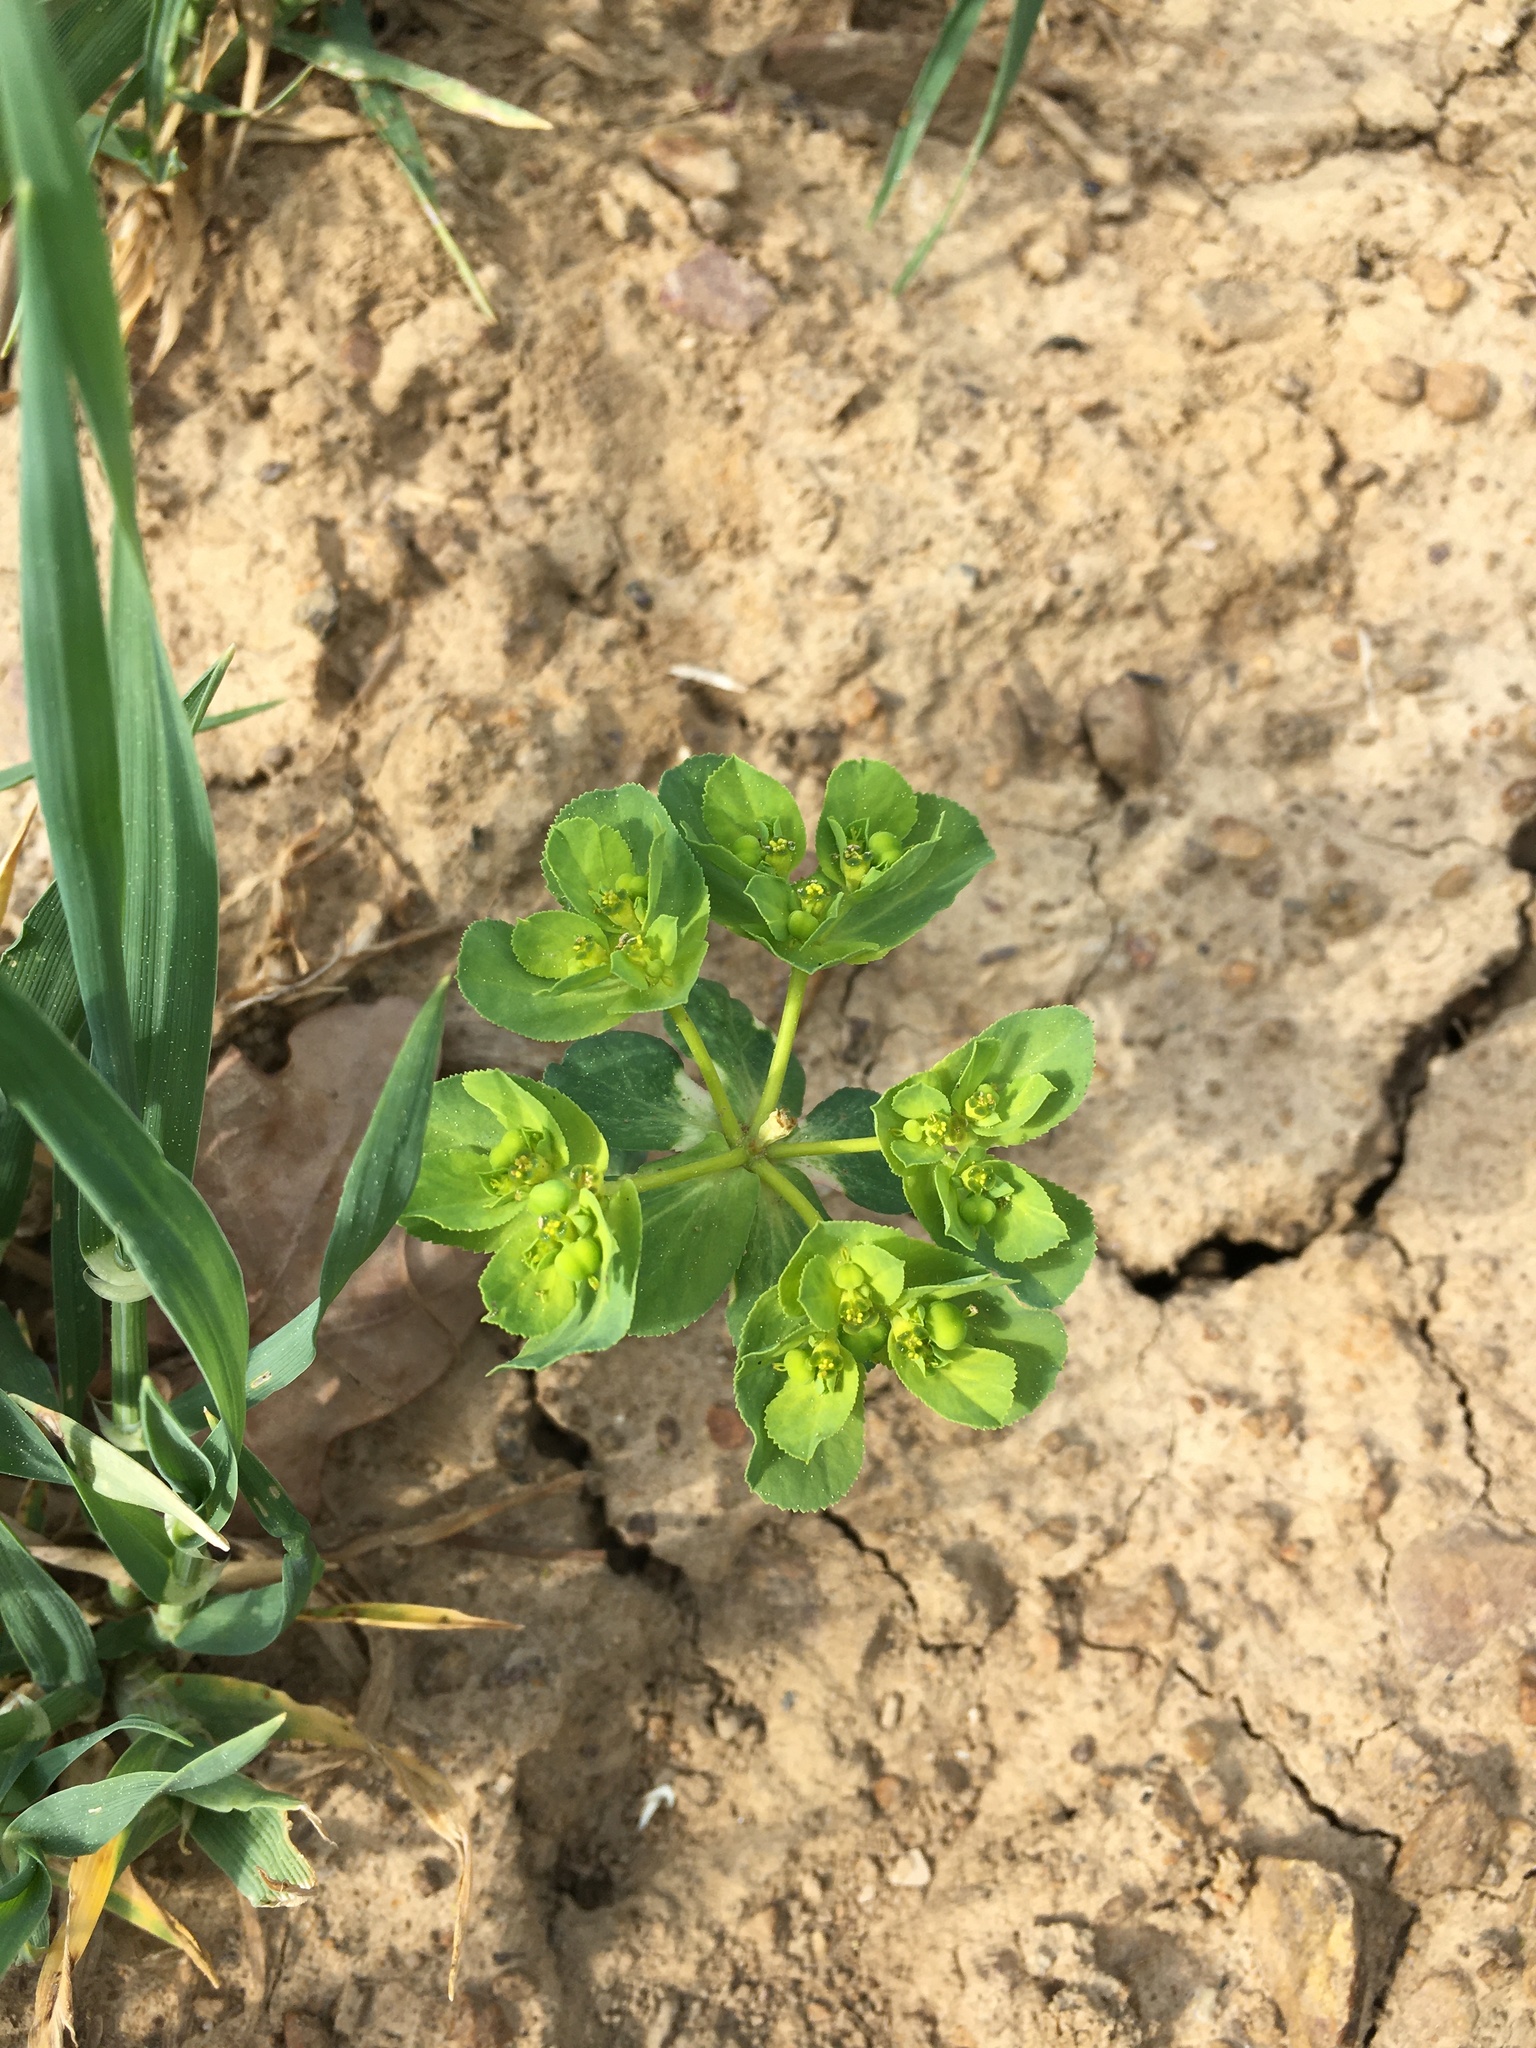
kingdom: Plantae
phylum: Tracheophyta
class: Magnoliopsida
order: Malpighiales
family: Euphorbiaceae
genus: Euphorbia
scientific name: Euphorbia helioscopia
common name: Sun spurge
